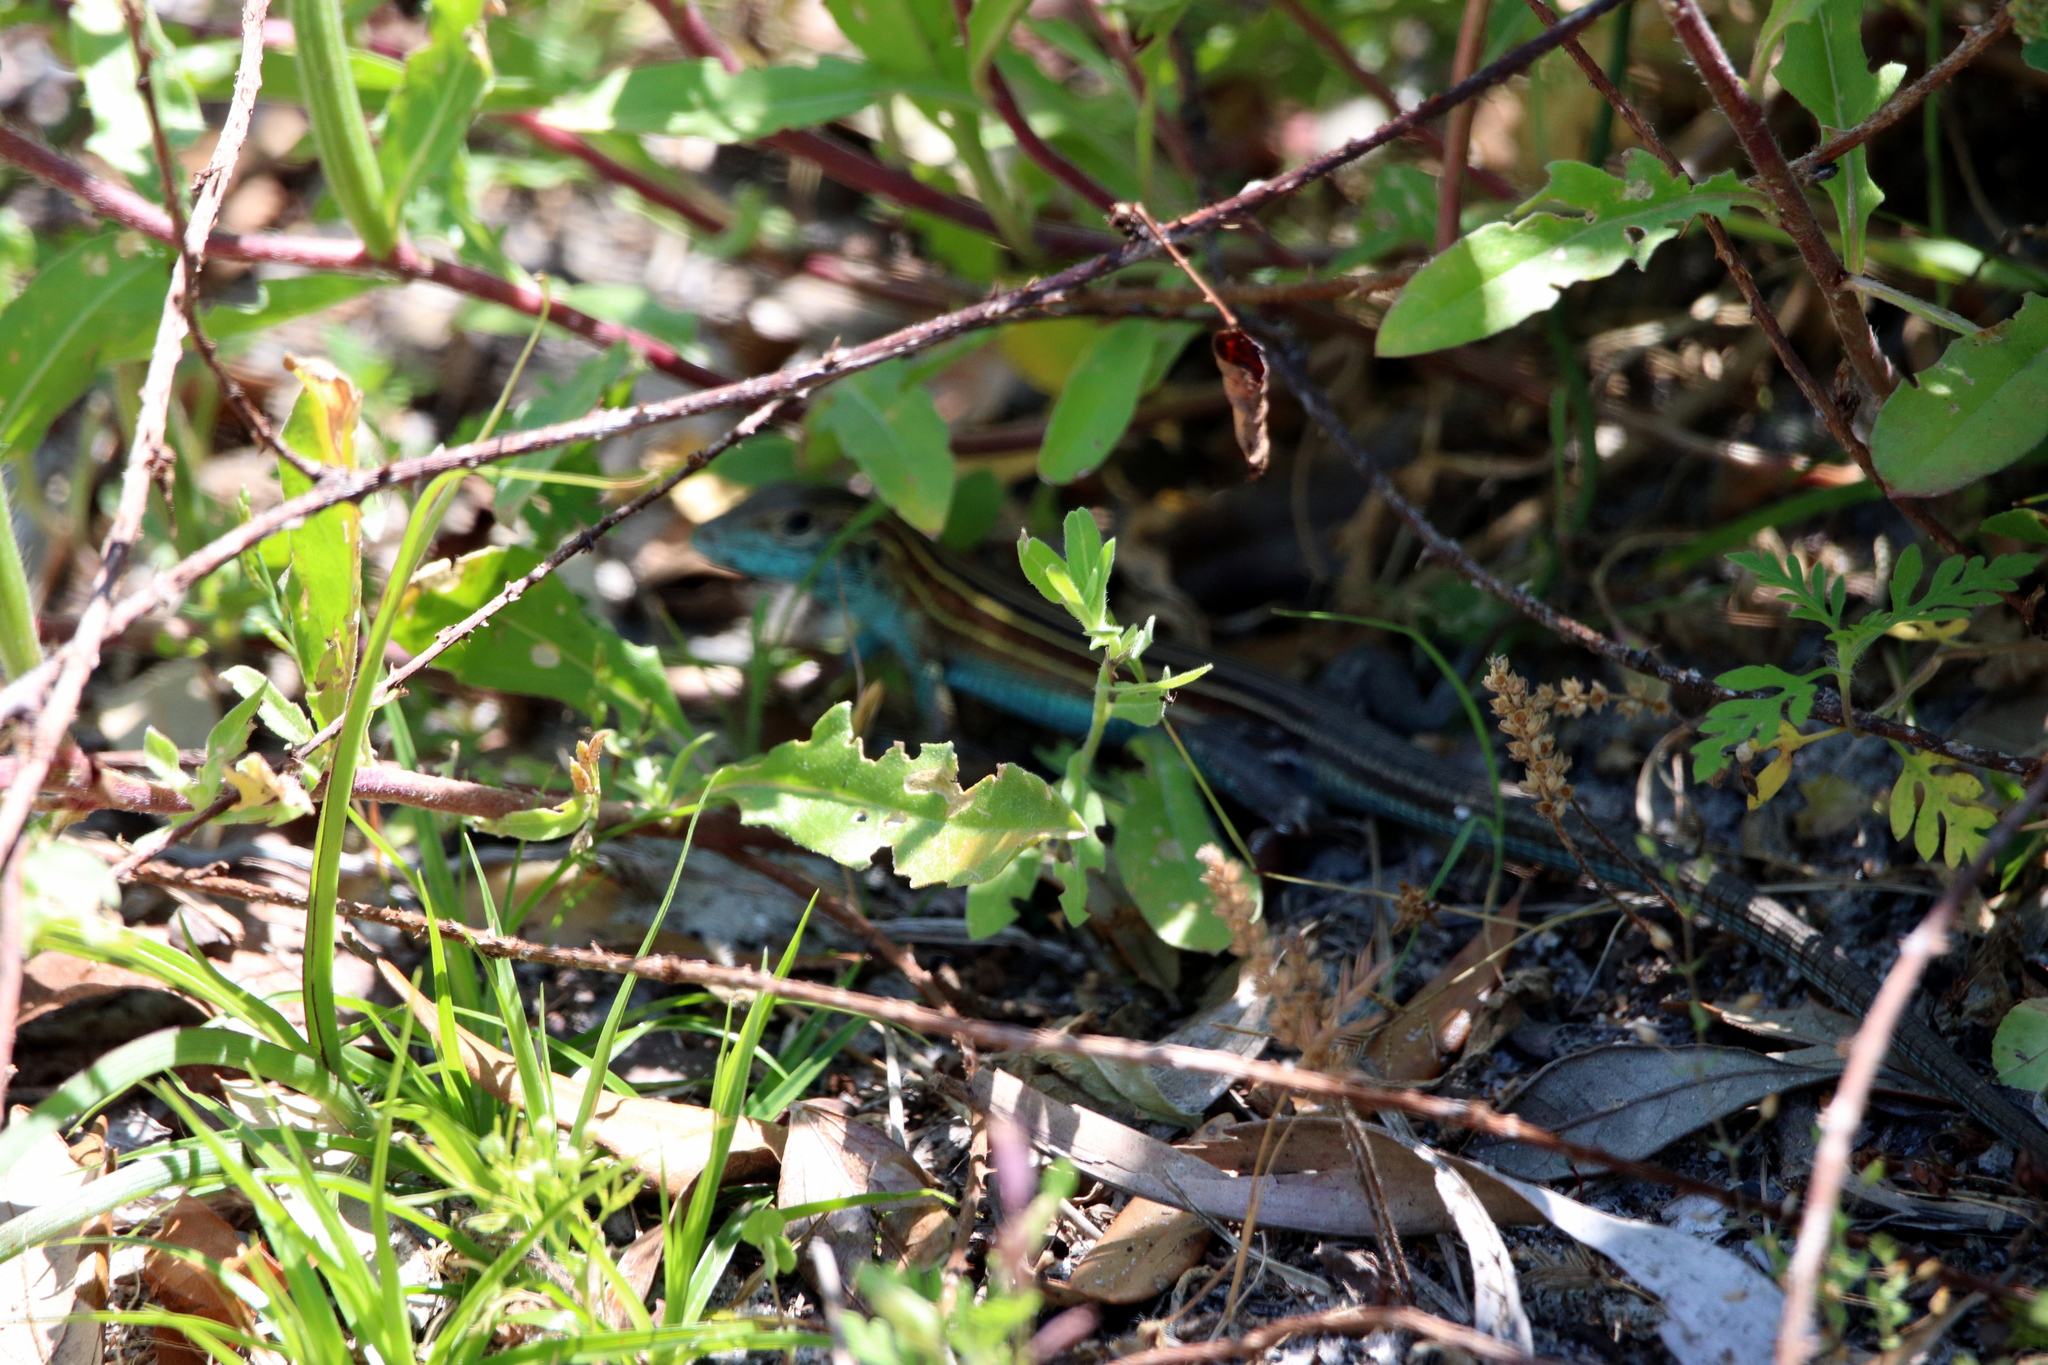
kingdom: Animalia
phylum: Chordata
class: Squamata
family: Teiidae
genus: Aspidoscelis
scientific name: Aspidoscelis sexlineatus
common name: Six-lined racerunner
